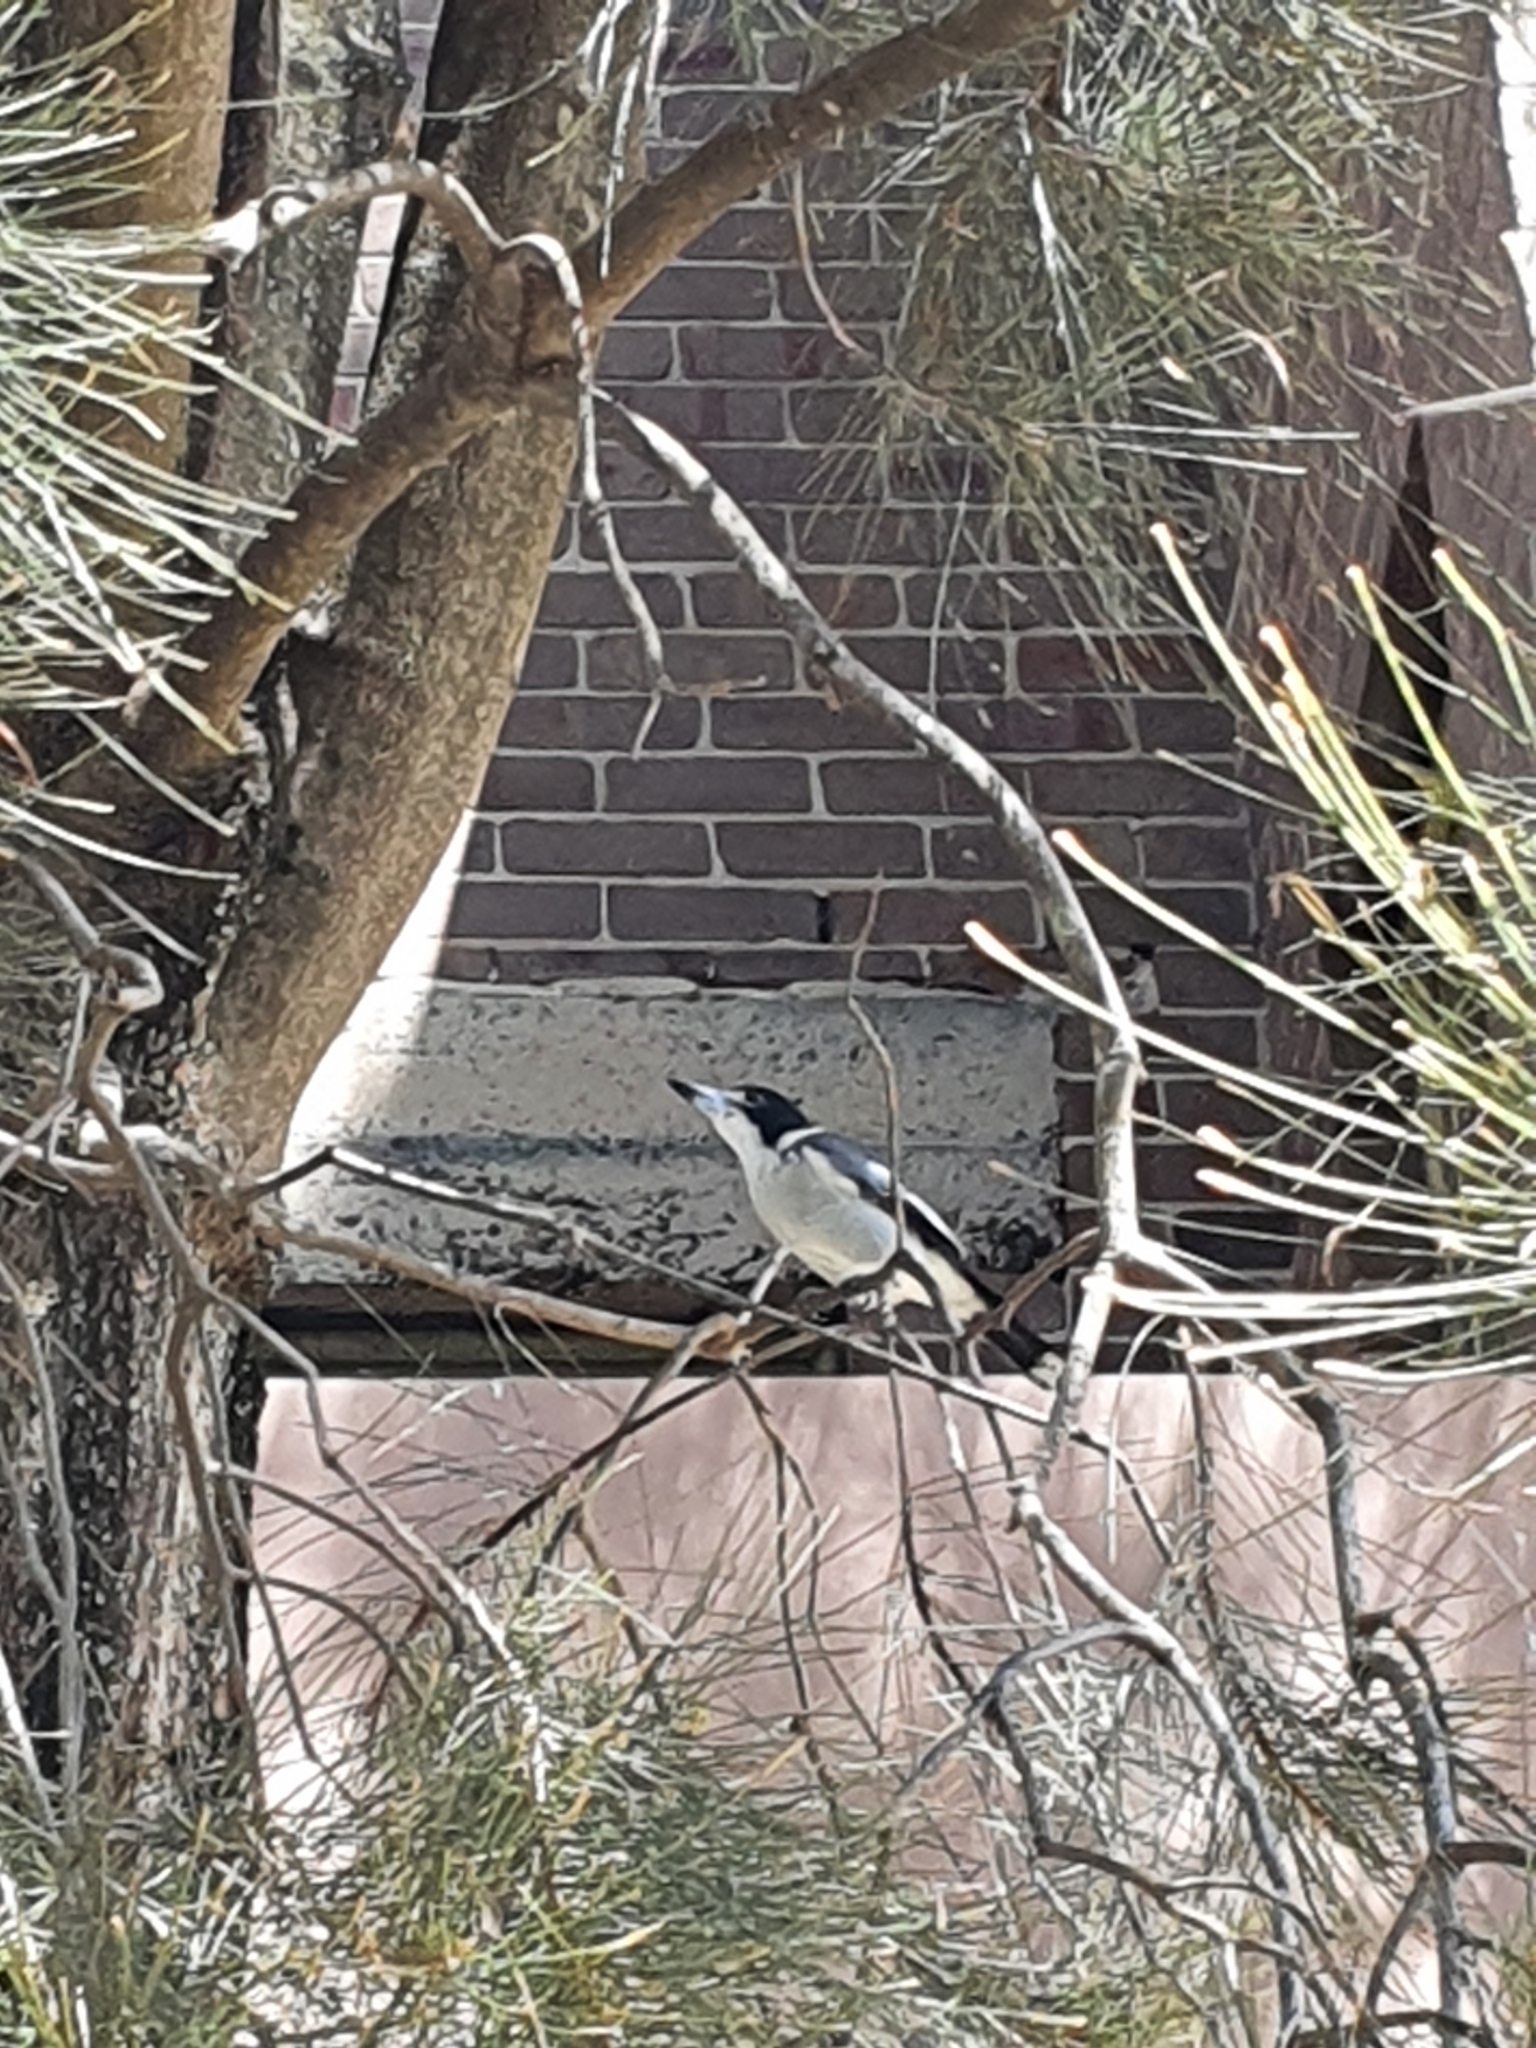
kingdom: Animalia
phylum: Chordata
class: Aves
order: Passeriformes
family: Cracticidae
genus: Cracticus
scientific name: Cracticus torquatus
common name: Grey butcherbird
